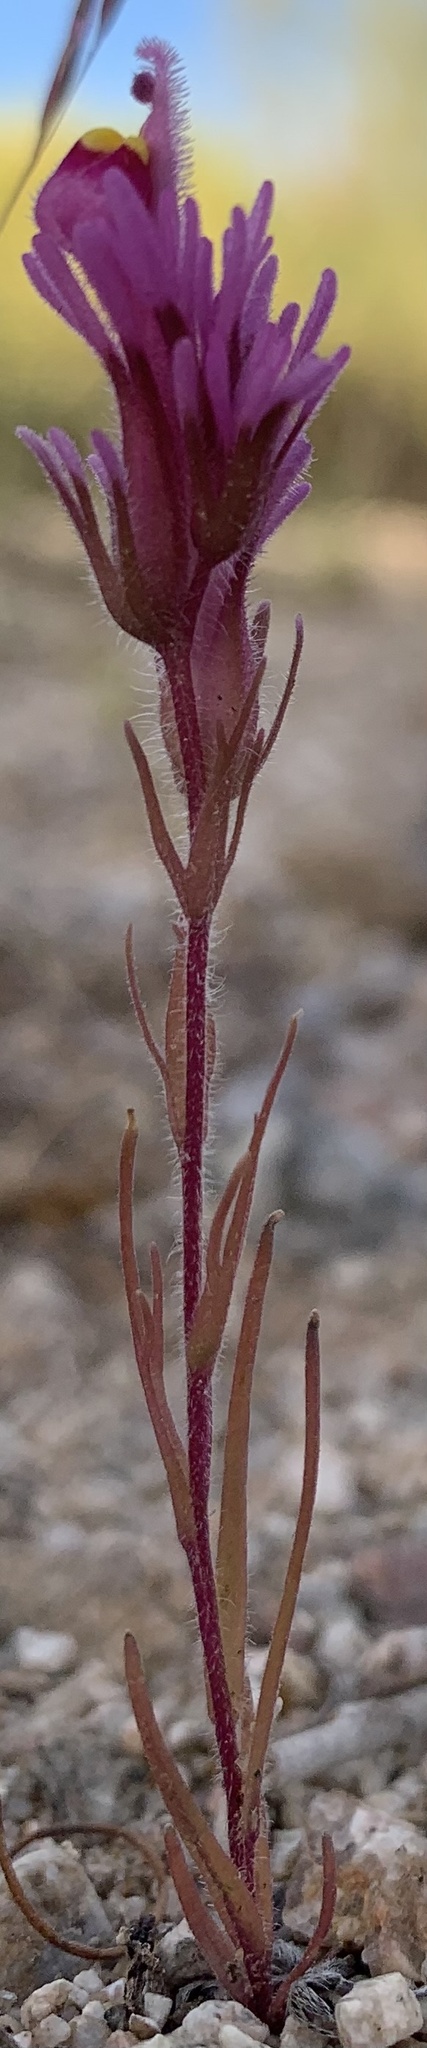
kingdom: Plantae
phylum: Tracheophyta
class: Magnoliopsida
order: Lamiales
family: Orobanchaceae
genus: Castilleja
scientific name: Castilleja exserta
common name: Purple owl-clover
